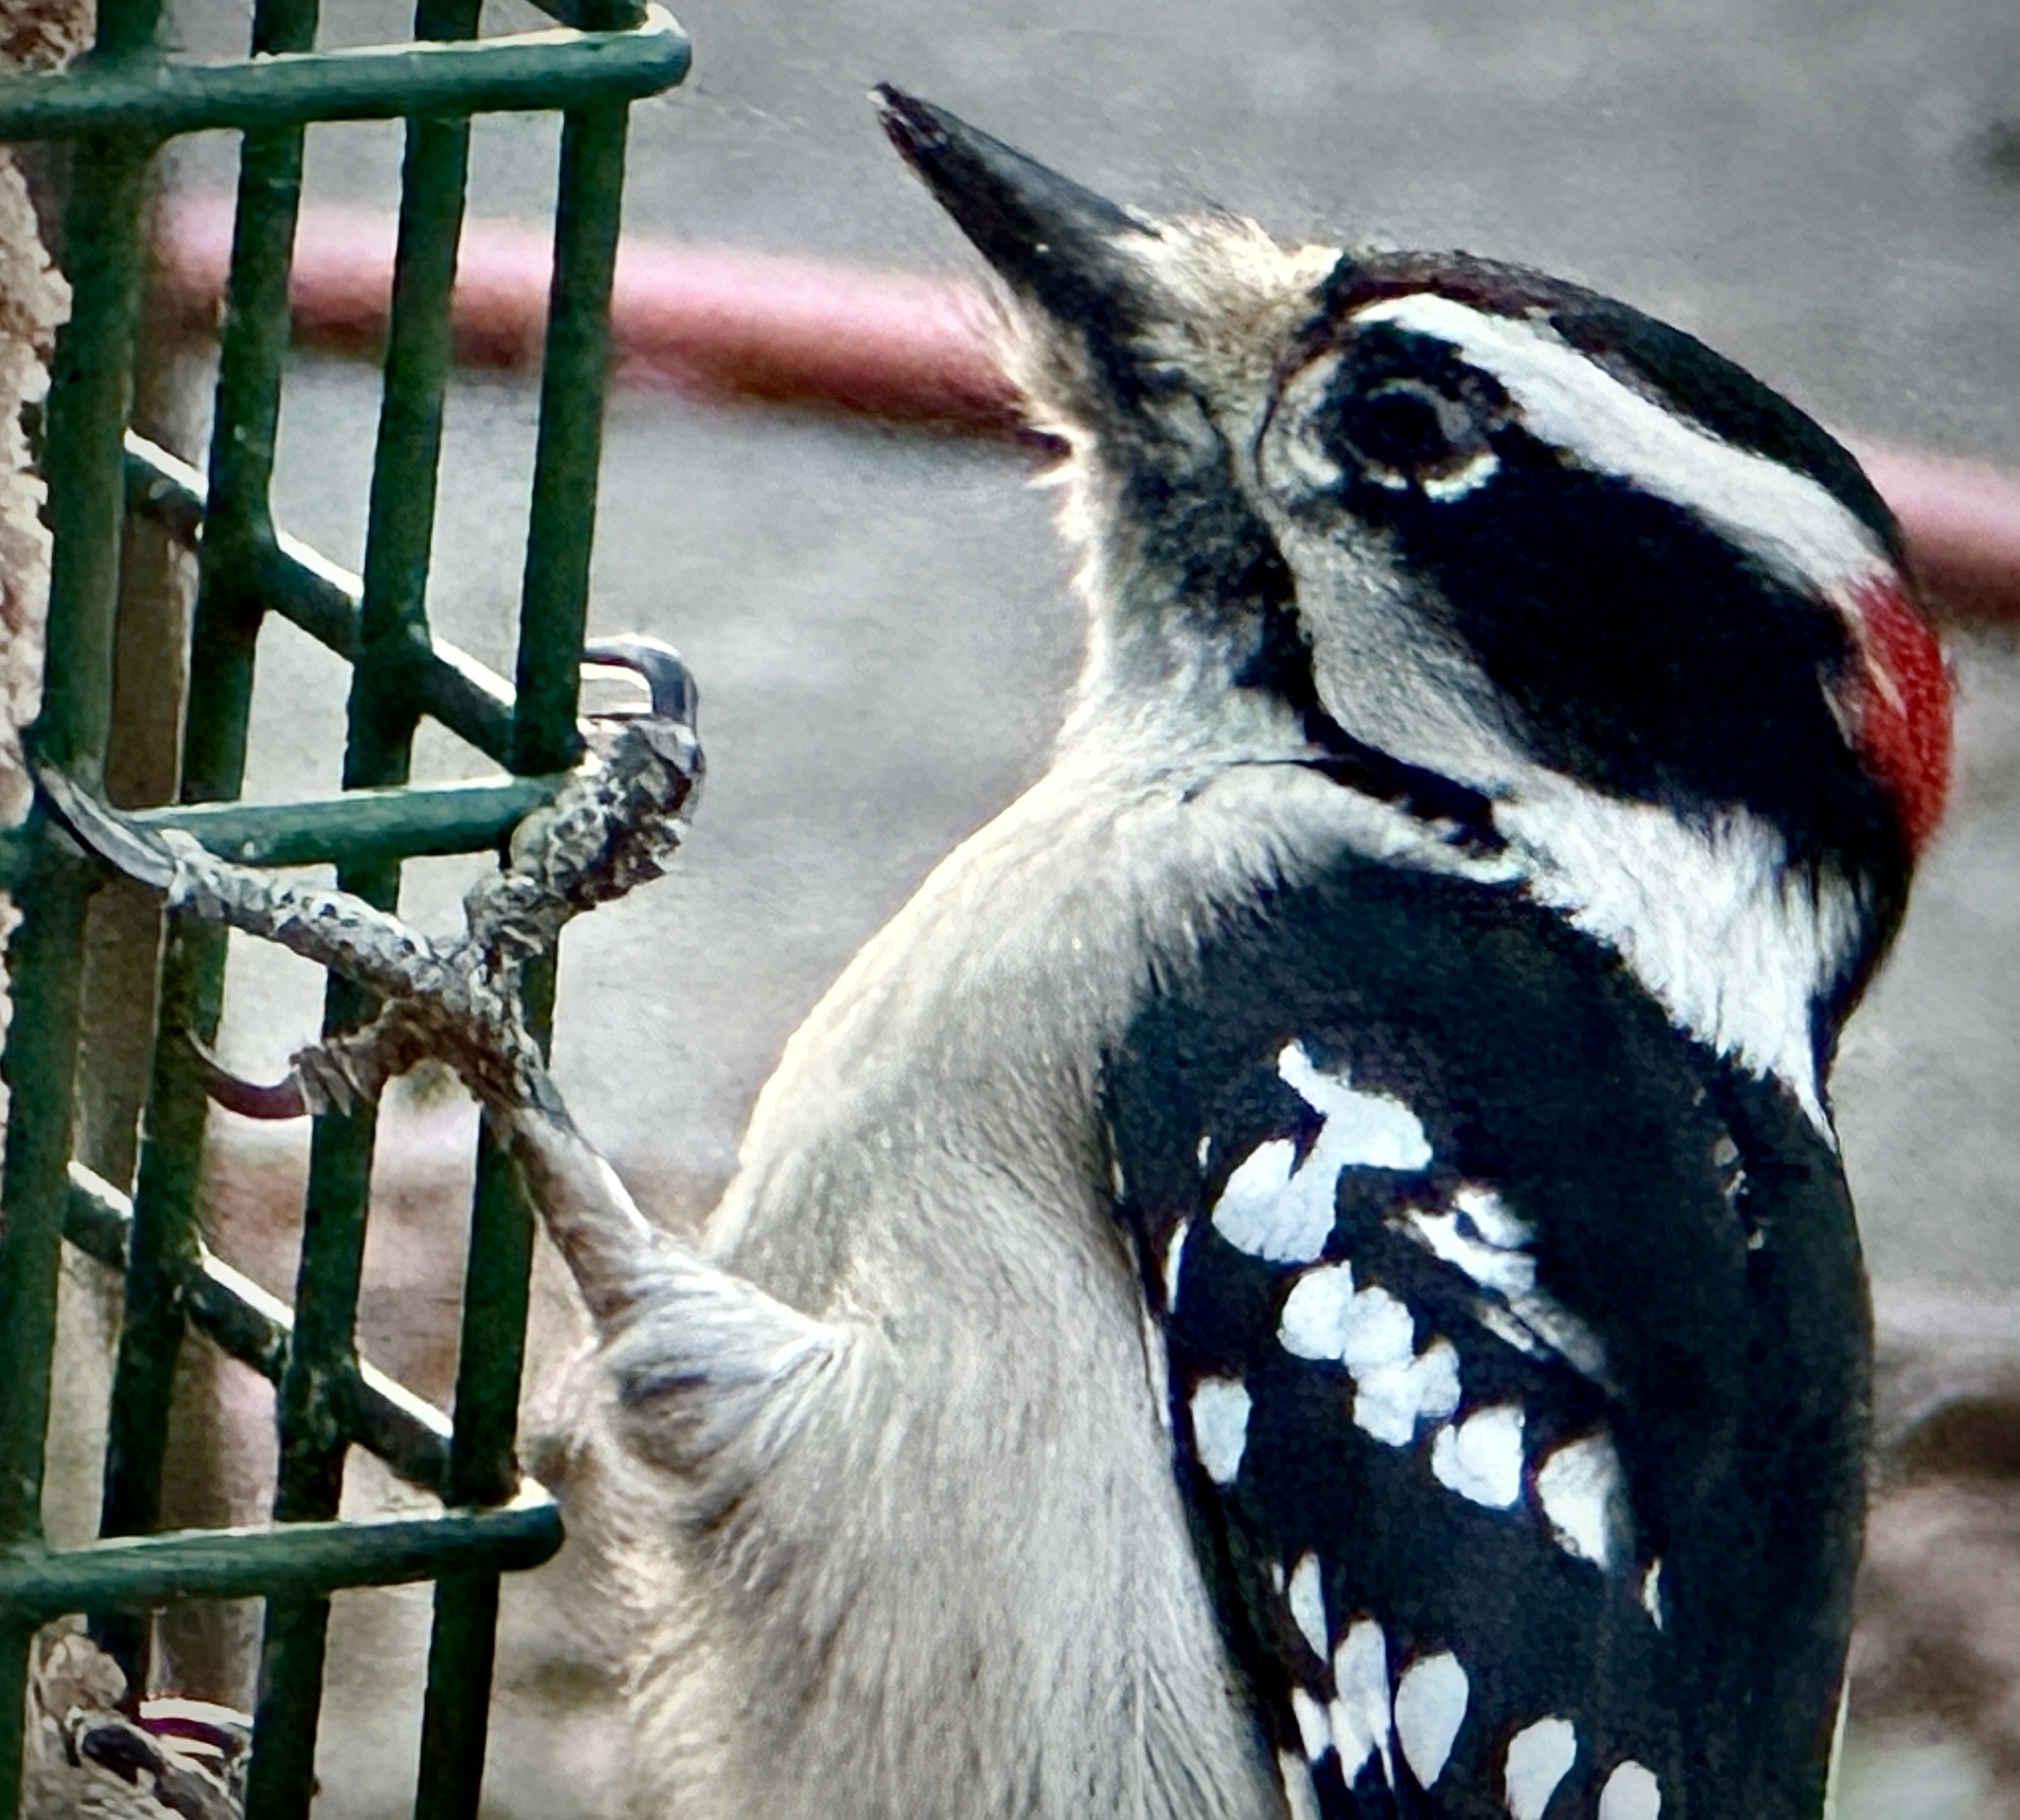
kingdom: Animalia
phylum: Chordata
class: Aves
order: Piciformes
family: Picidae
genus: Dryobates
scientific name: Dryobates pubescens
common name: Downy woodpecker
